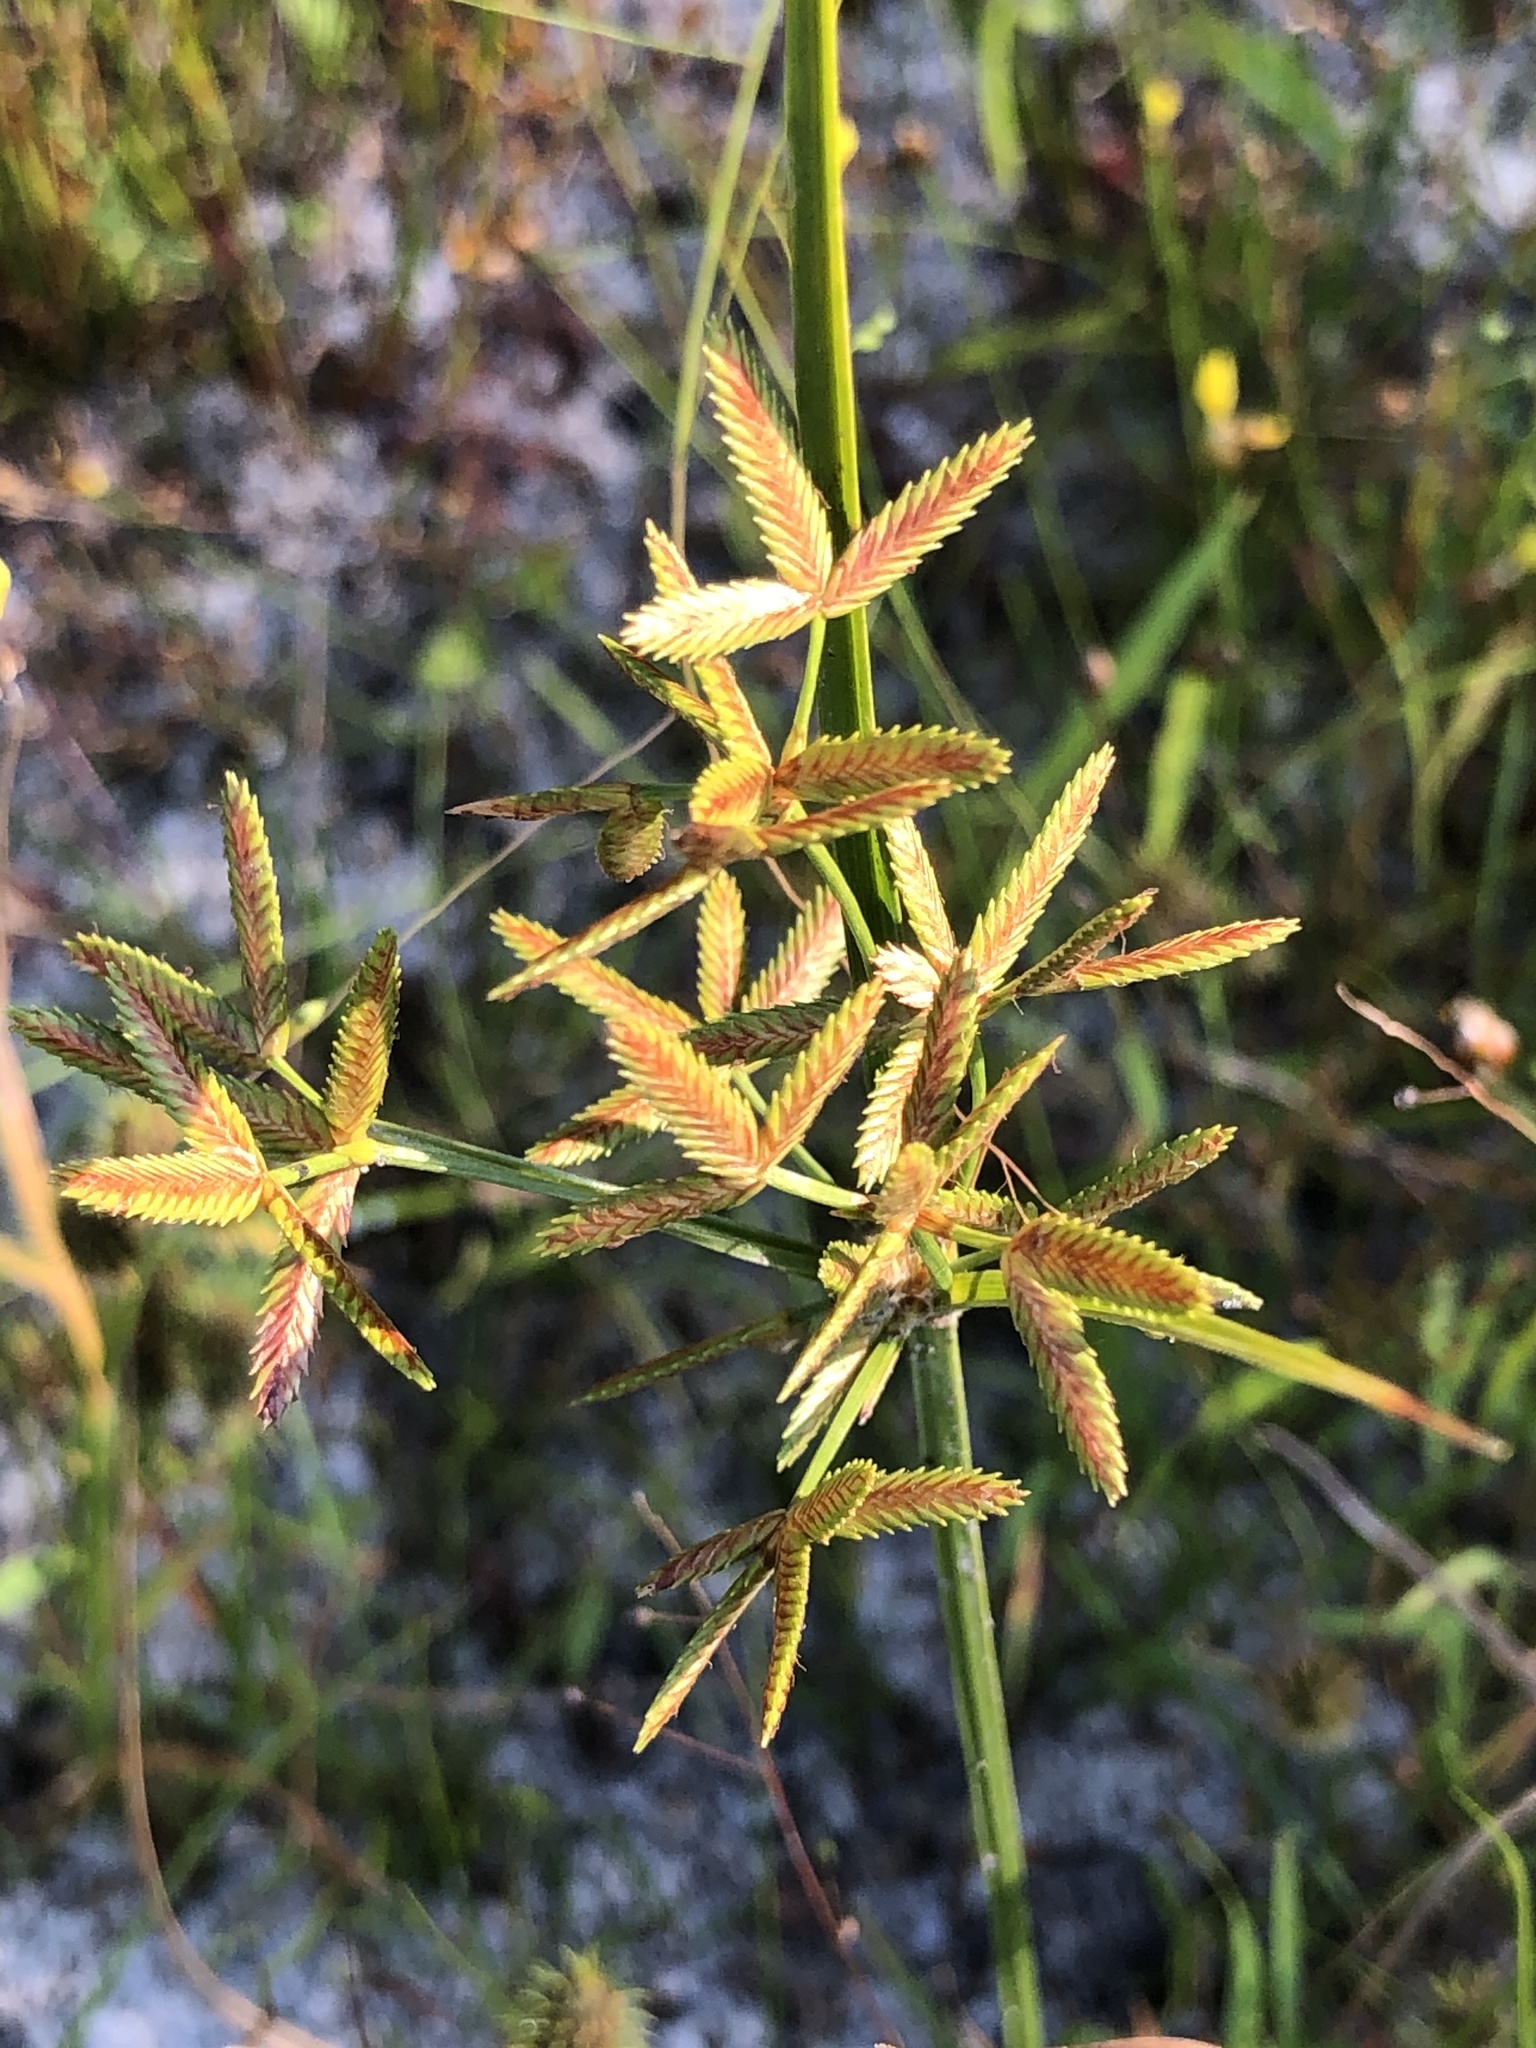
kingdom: Plantae
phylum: Tracheophyta
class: Liliopsida
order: Poales
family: Cyperaceae
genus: Cyperus
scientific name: Cyperus dentatus
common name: Dentate umbrella sedge
